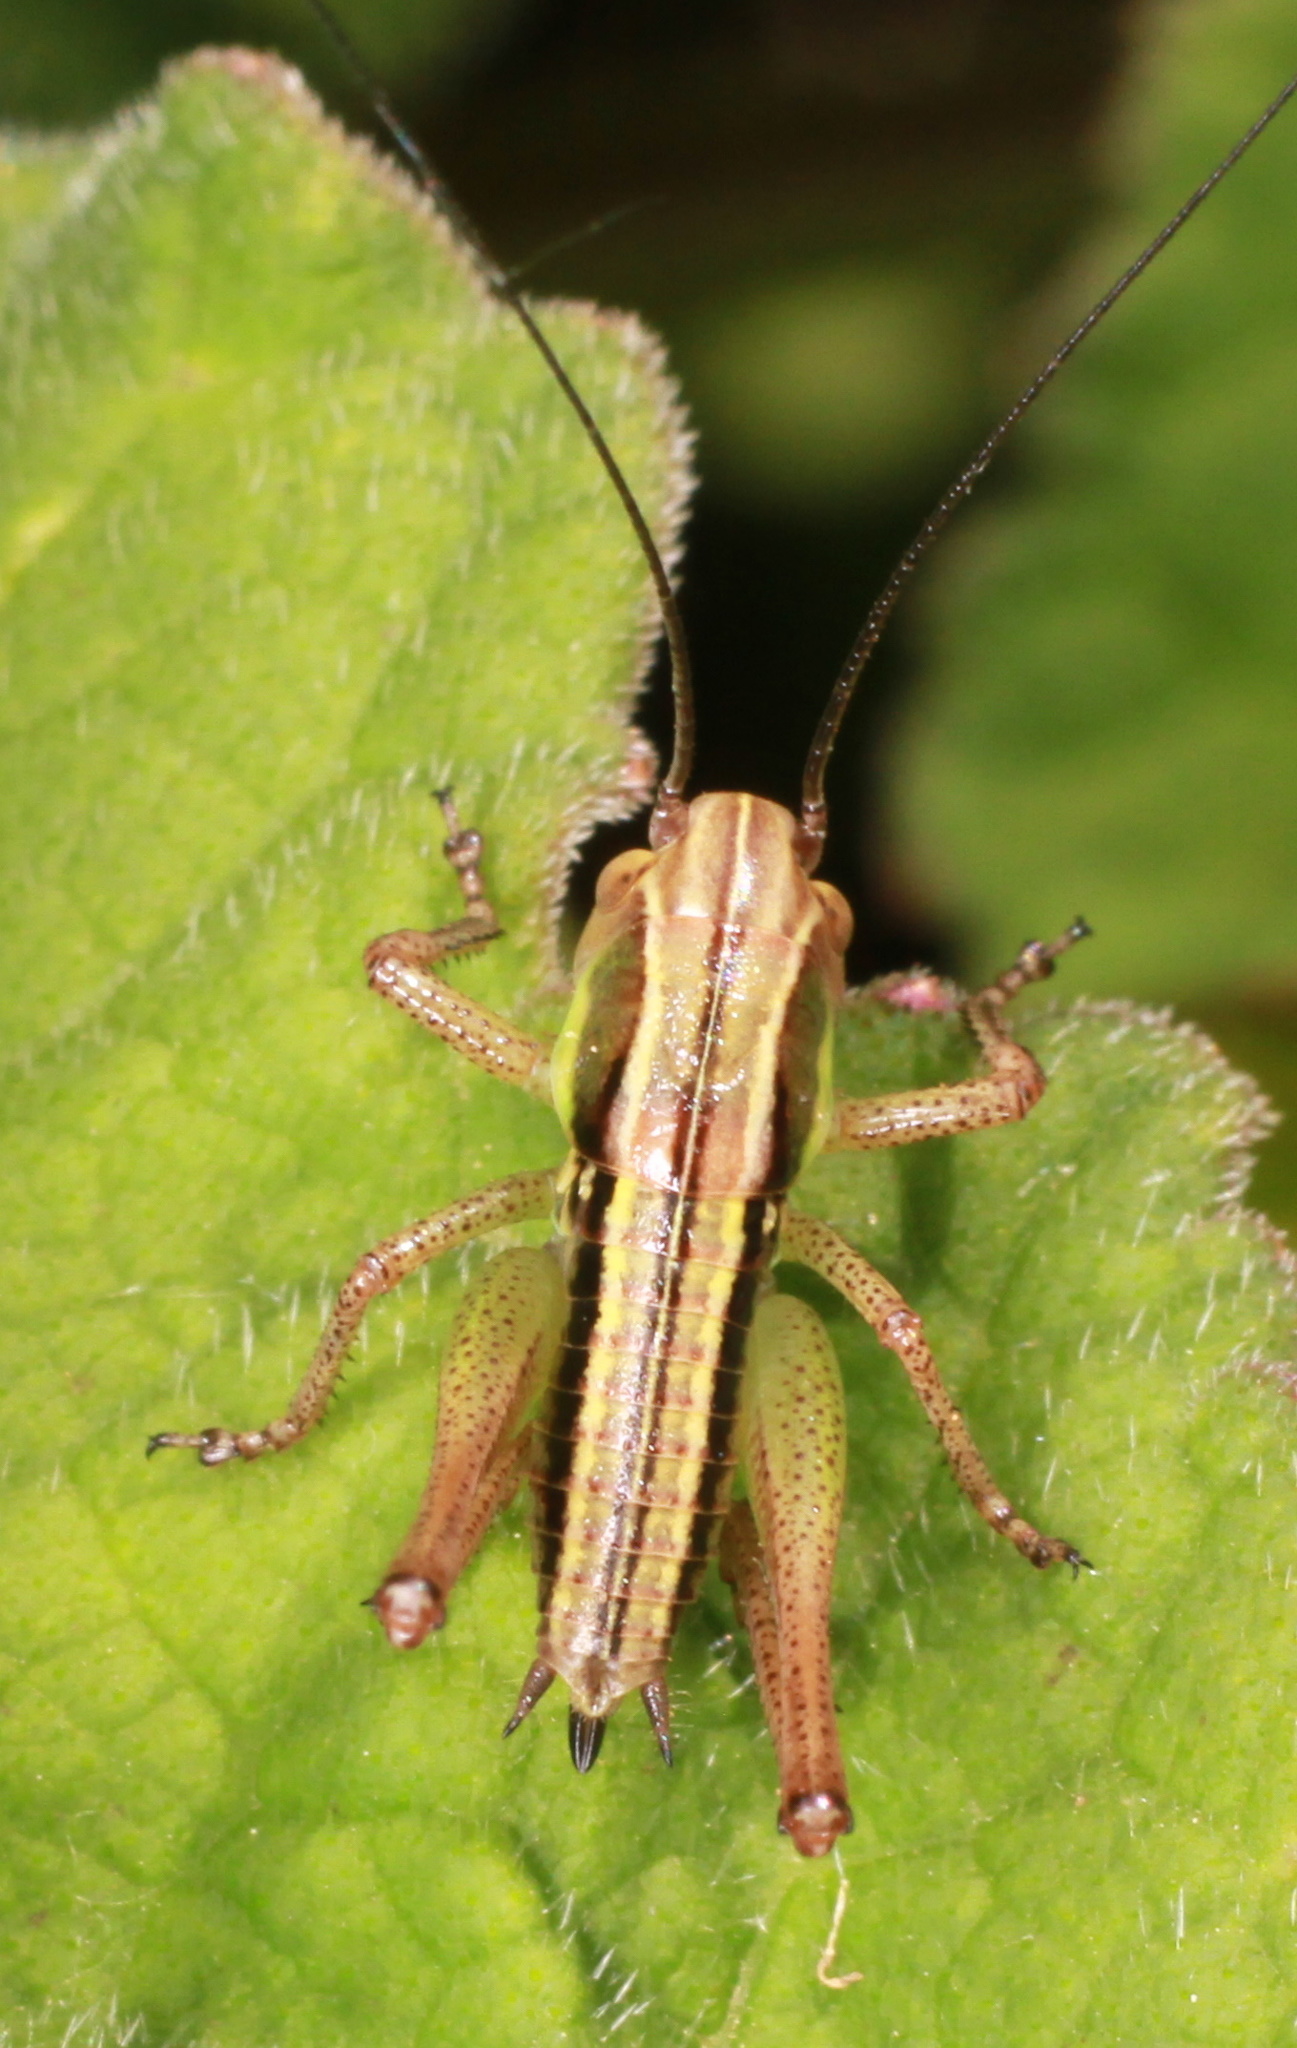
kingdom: Animalia
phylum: Arthropoda
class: Insecta
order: Orthoptera
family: Tettigoniidae
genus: Roeseliana
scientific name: Roeseliana roeselii
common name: Roesel's bush cricket
